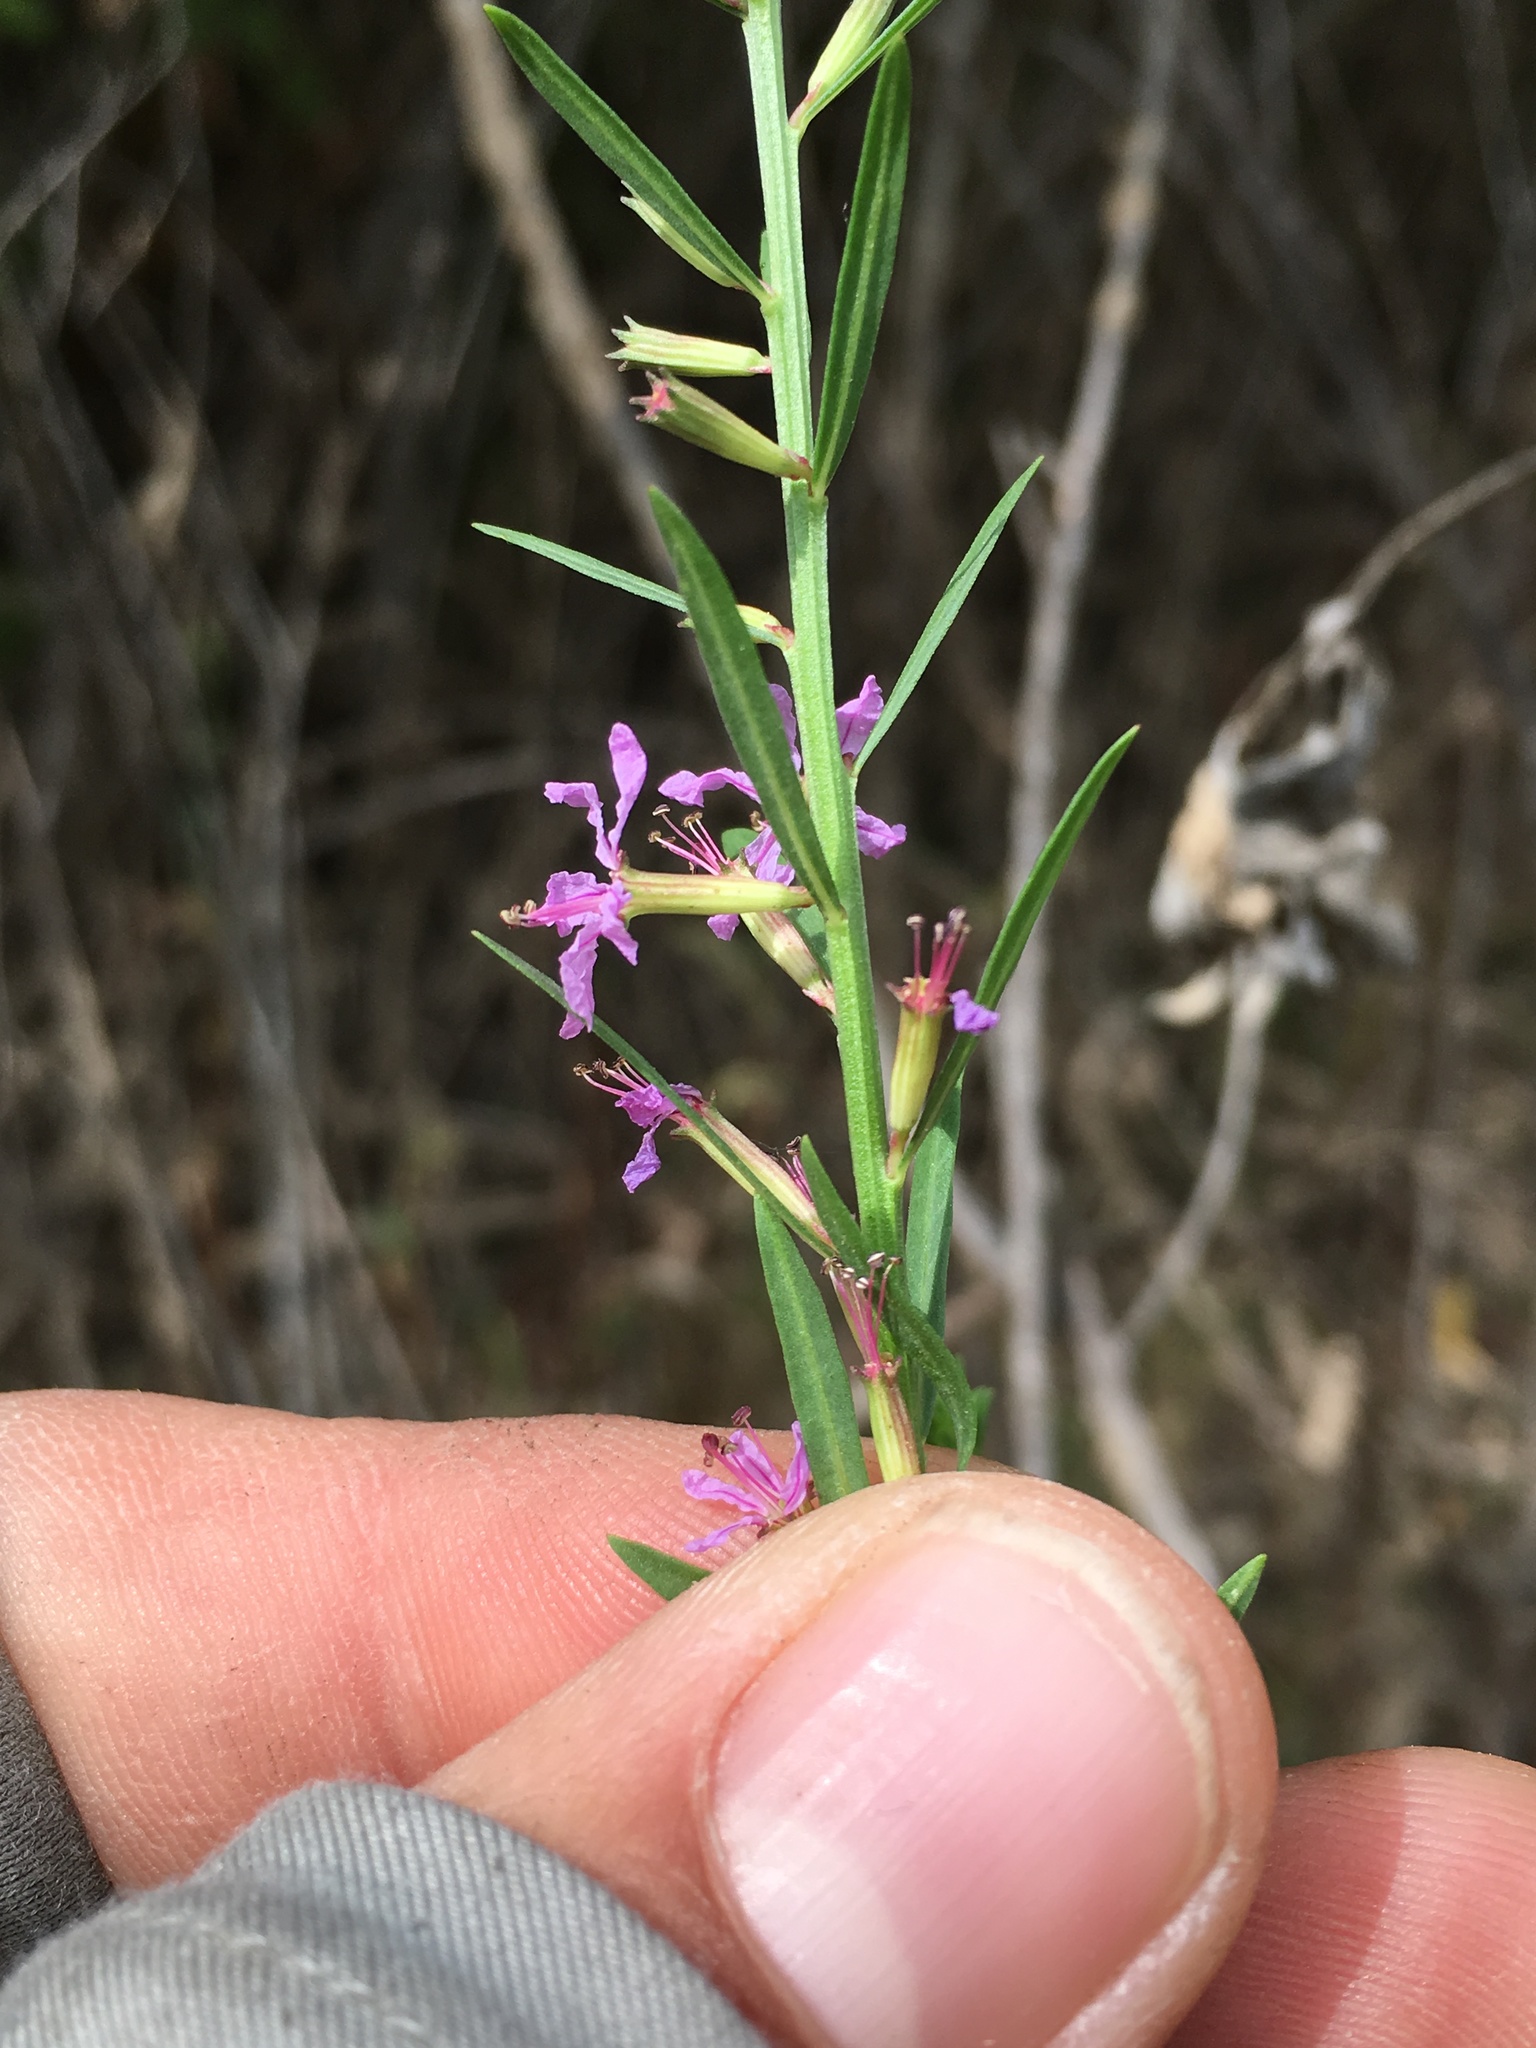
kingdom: Plantae
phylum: Tracheophyta
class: Magnoliopsida
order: Myrtales
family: Lythraceae
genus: Lythrum
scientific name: Lythrum californicum
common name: California loosestrife
